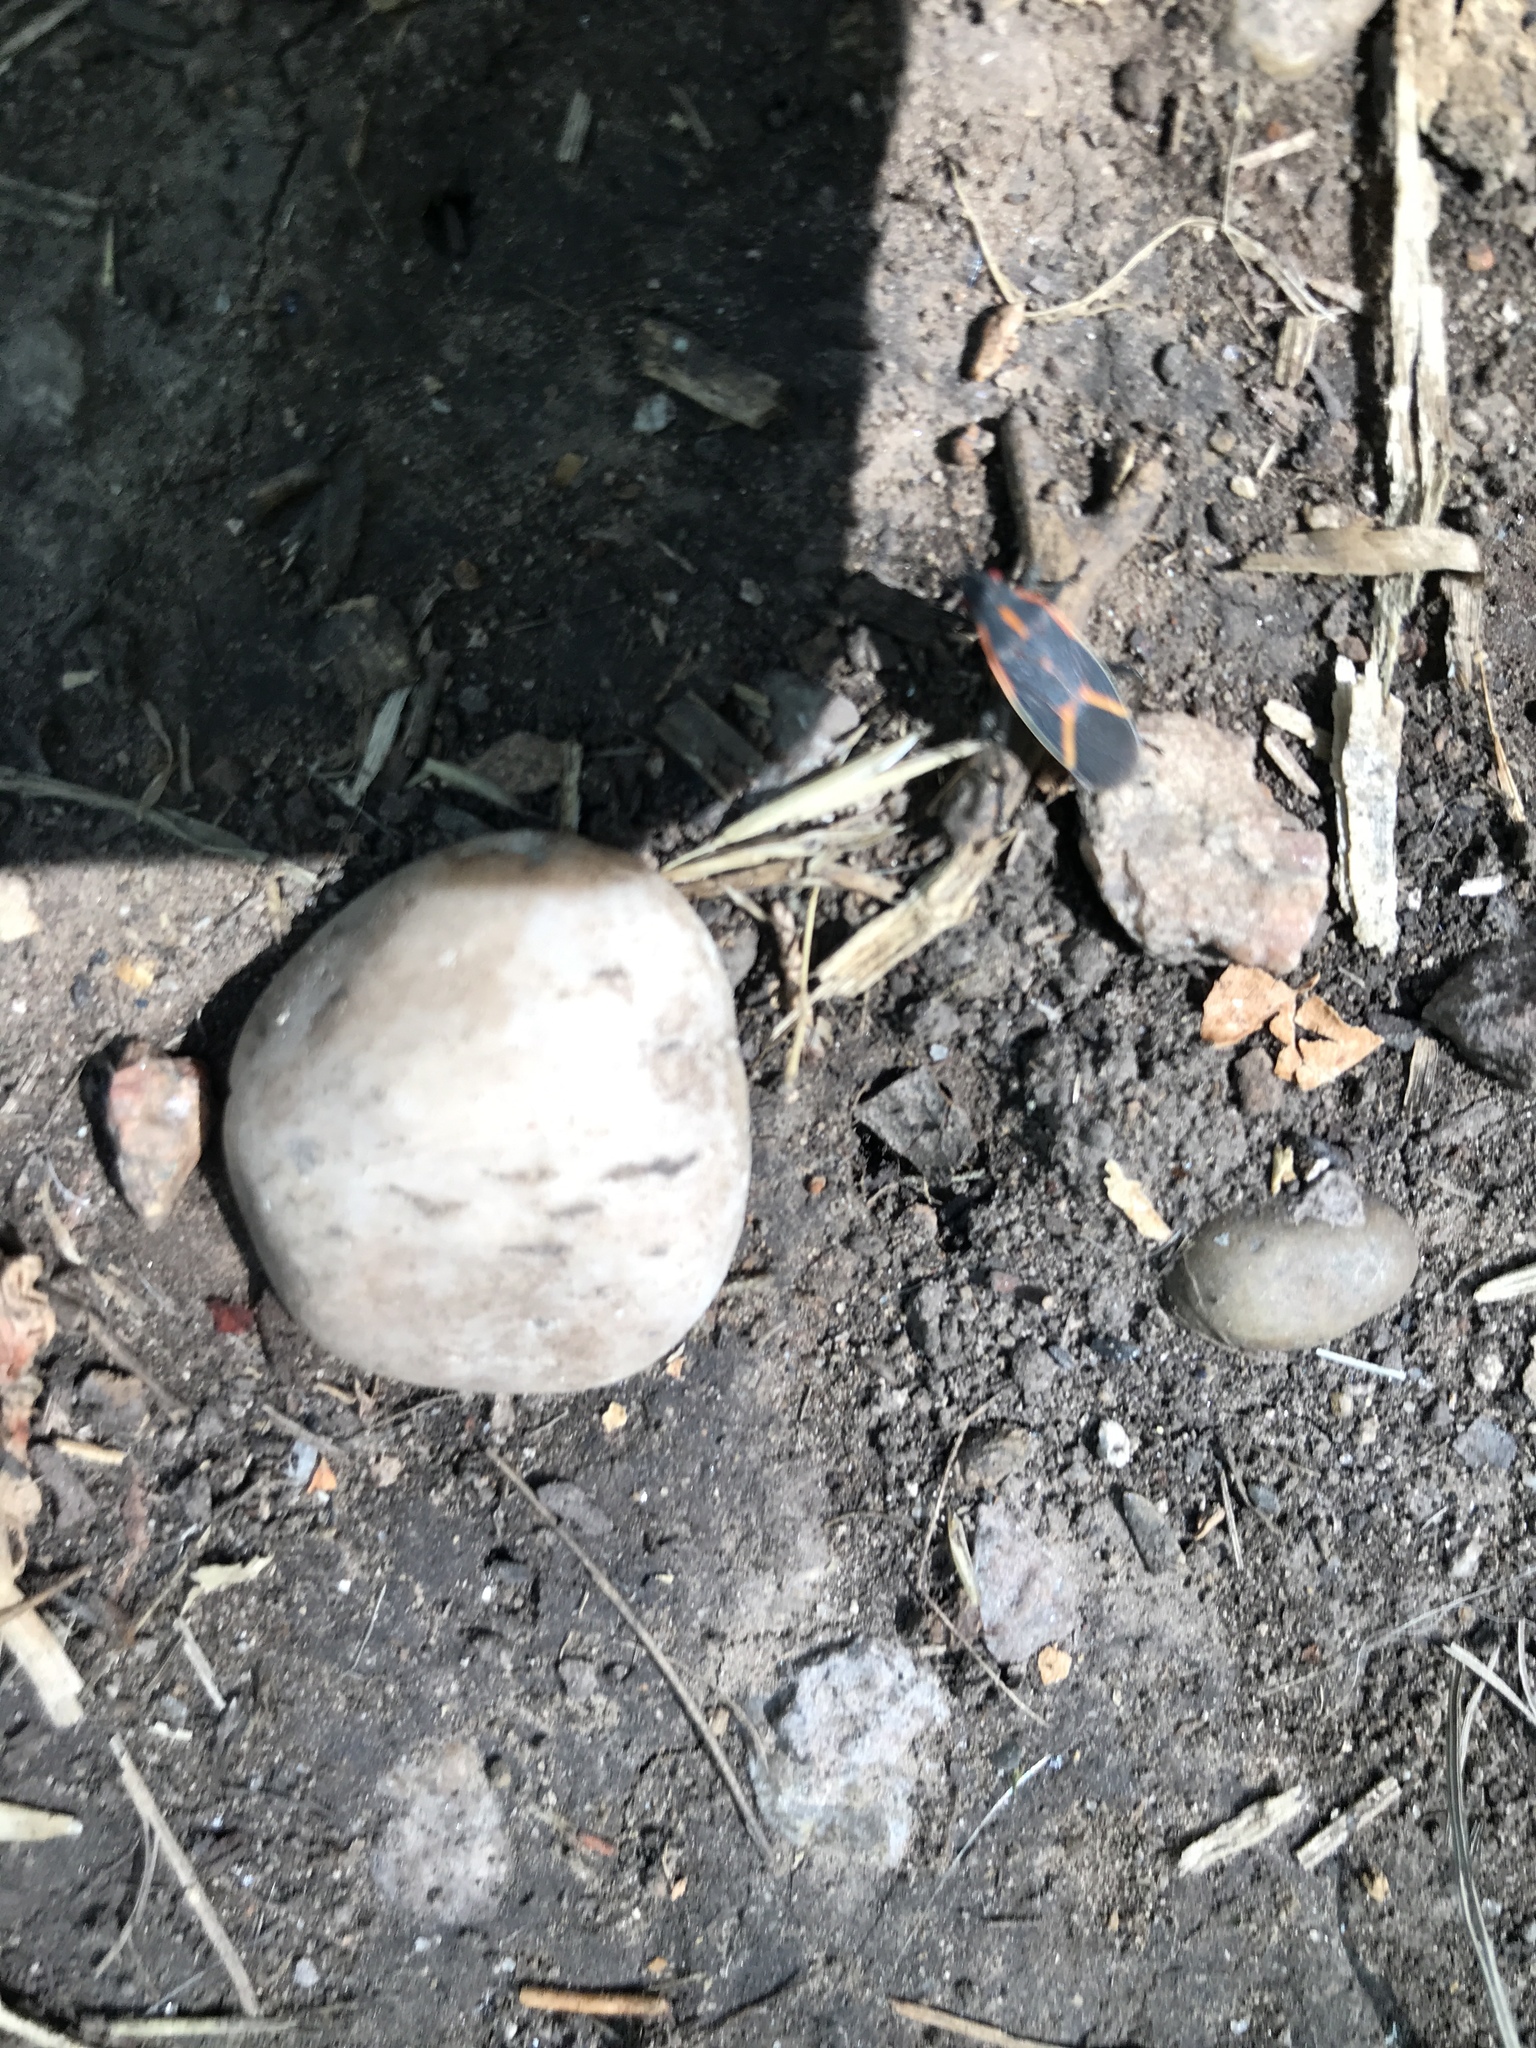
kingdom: Animalia
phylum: Arthropoda
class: Insecta
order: Hemiptera
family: Rhopalidae
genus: Boisea
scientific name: Boisea trivittata
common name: Boxelder bug
